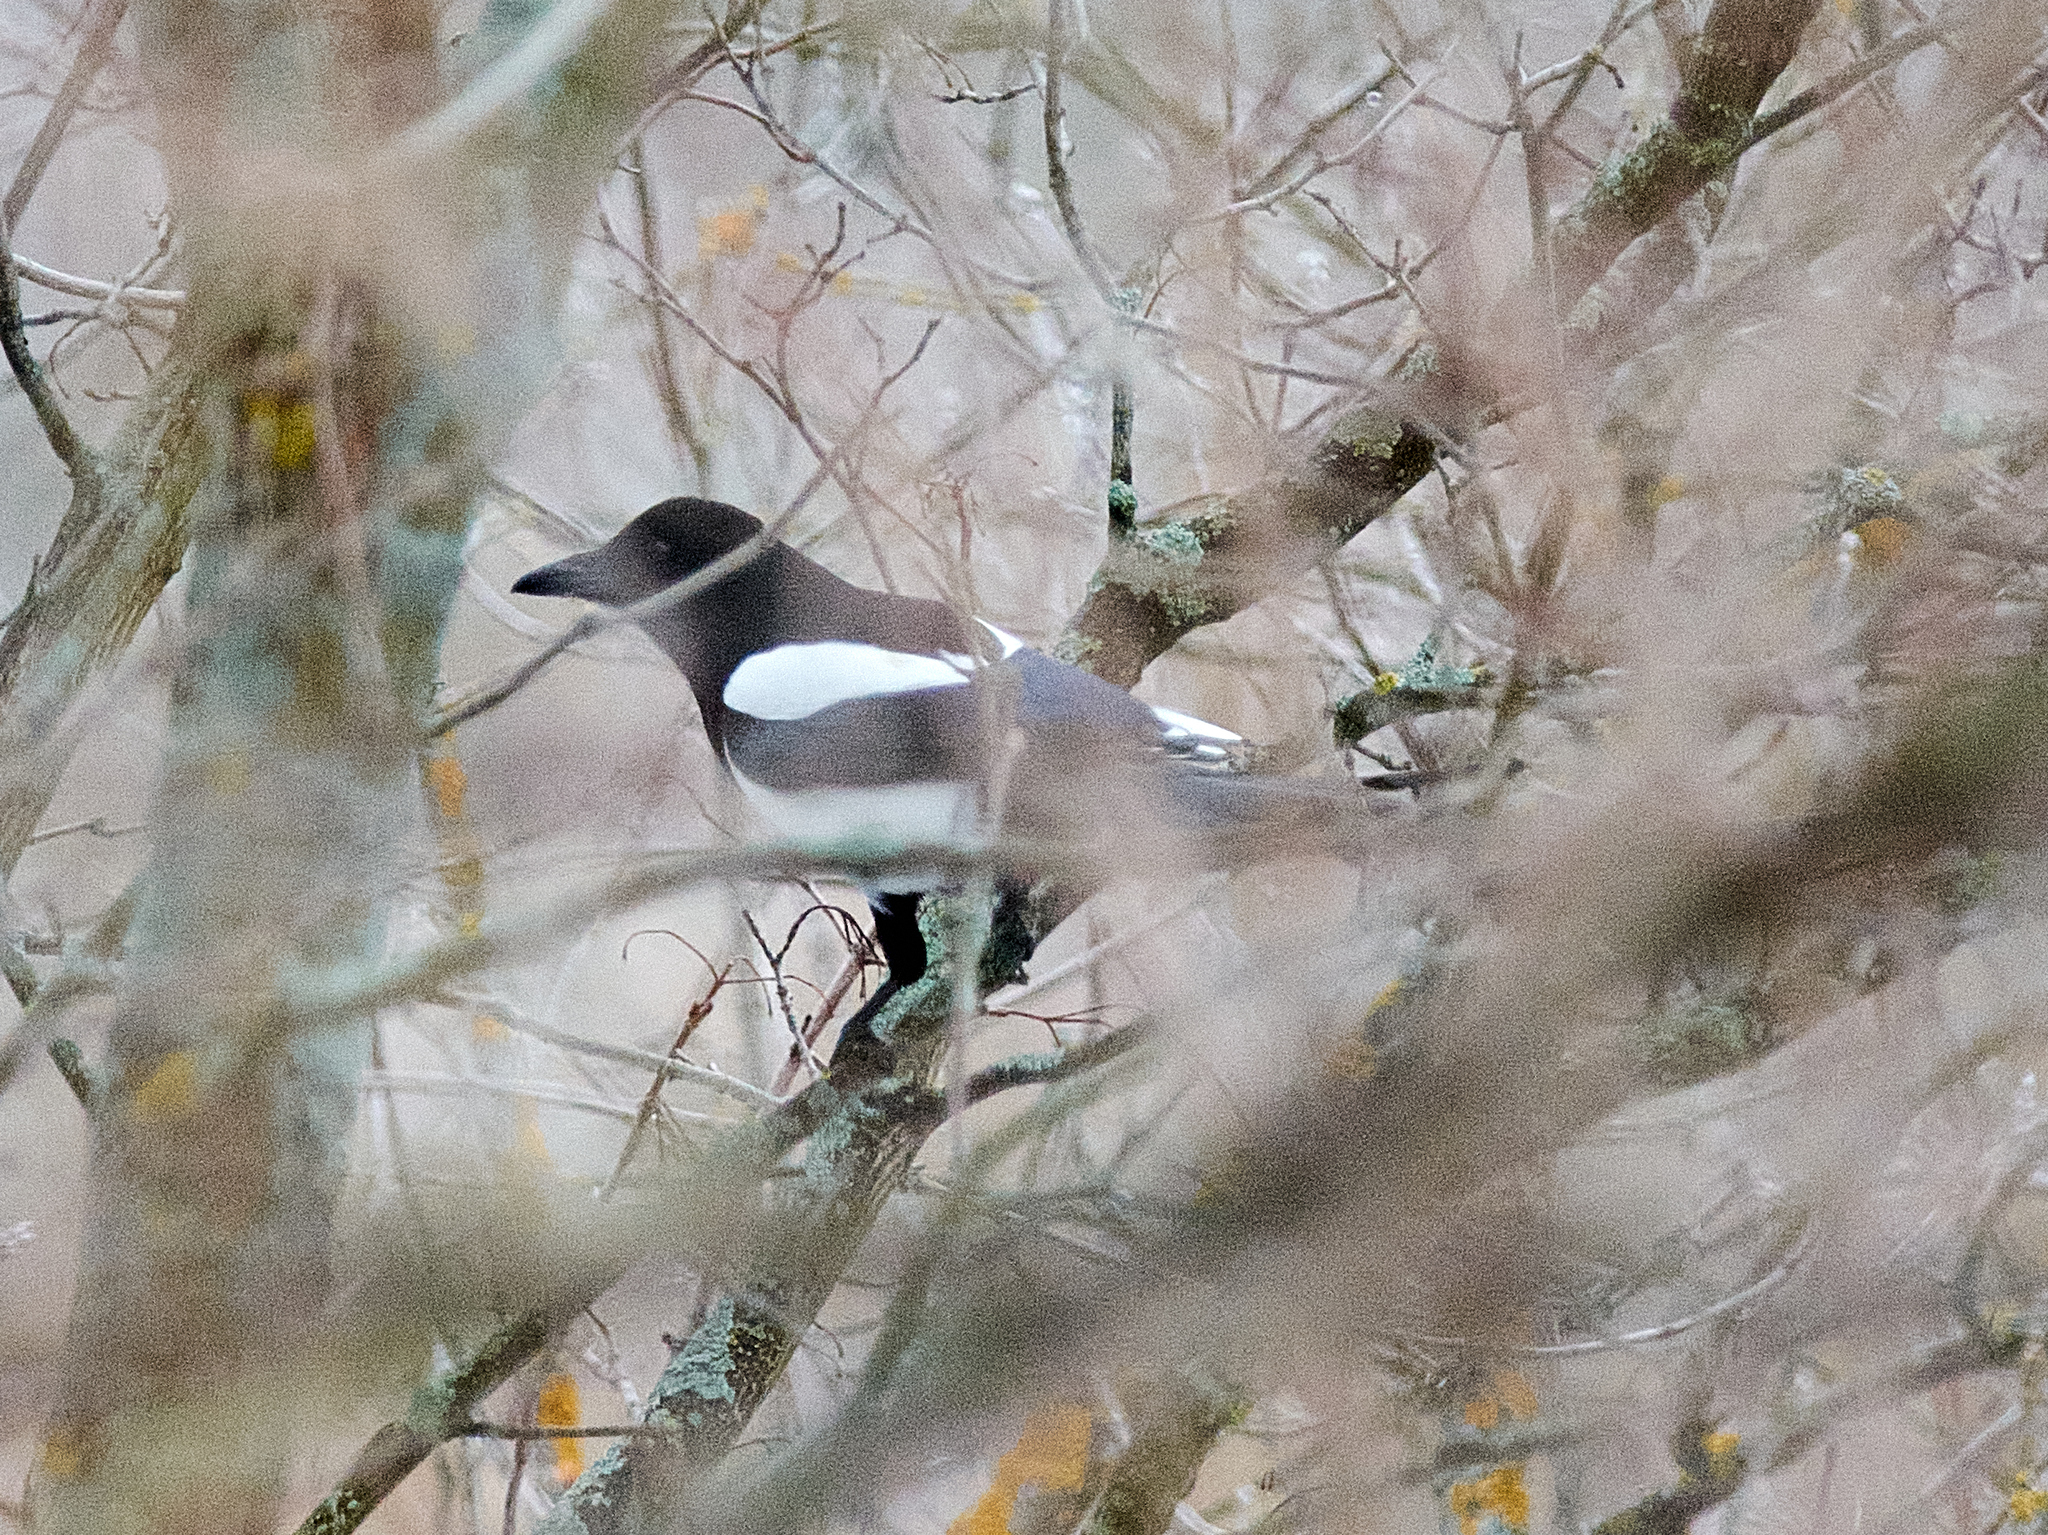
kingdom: Animalia
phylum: Chordata
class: Aves
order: Passeriformes
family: Corvidae
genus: Pica
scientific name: Pica pica
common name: Eurasian magpie
